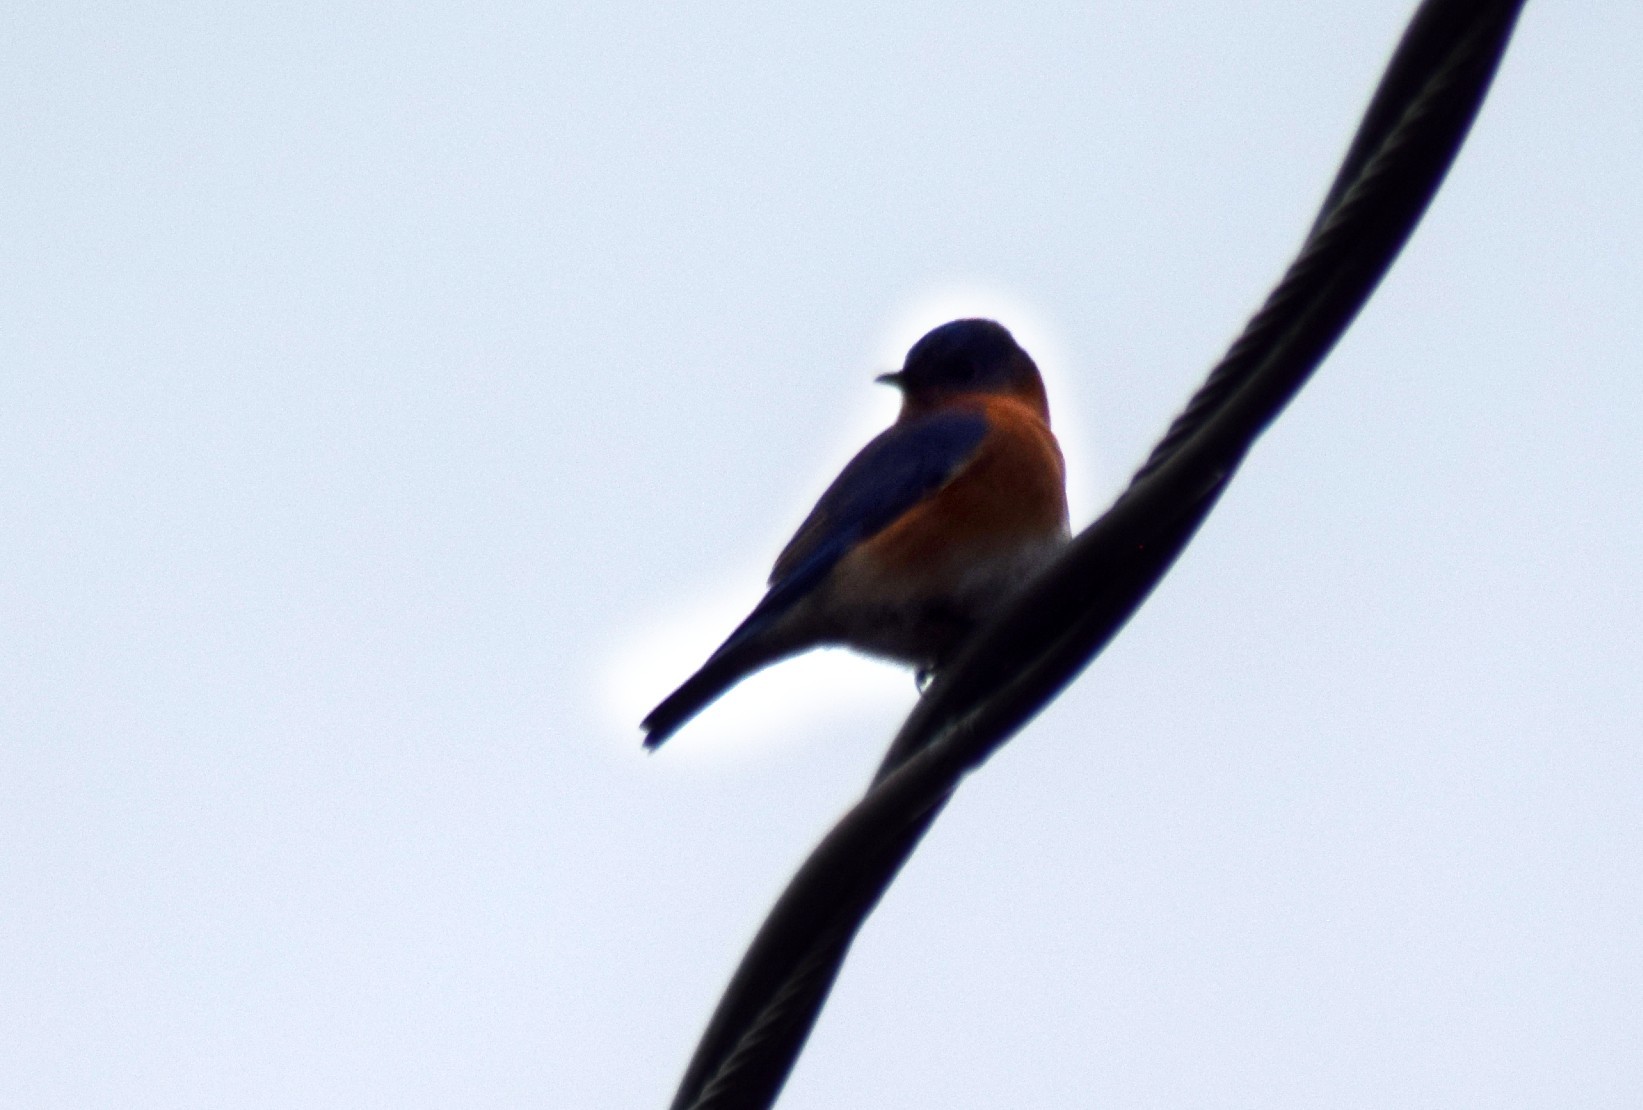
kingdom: Animalia
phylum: Chordata
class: Aves
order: Passeriformes
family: Turdidae
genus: Sialia
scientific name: Sialia sialis
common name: Eastern bluebird
